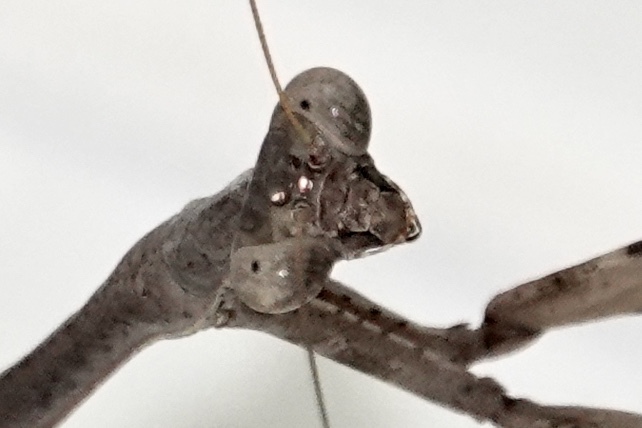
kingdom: Animalia
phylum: Arthropoda
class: Insecta
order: Mantodea
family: Mantidae
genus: Stagmomantis
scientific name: Stagmomantis carolina
